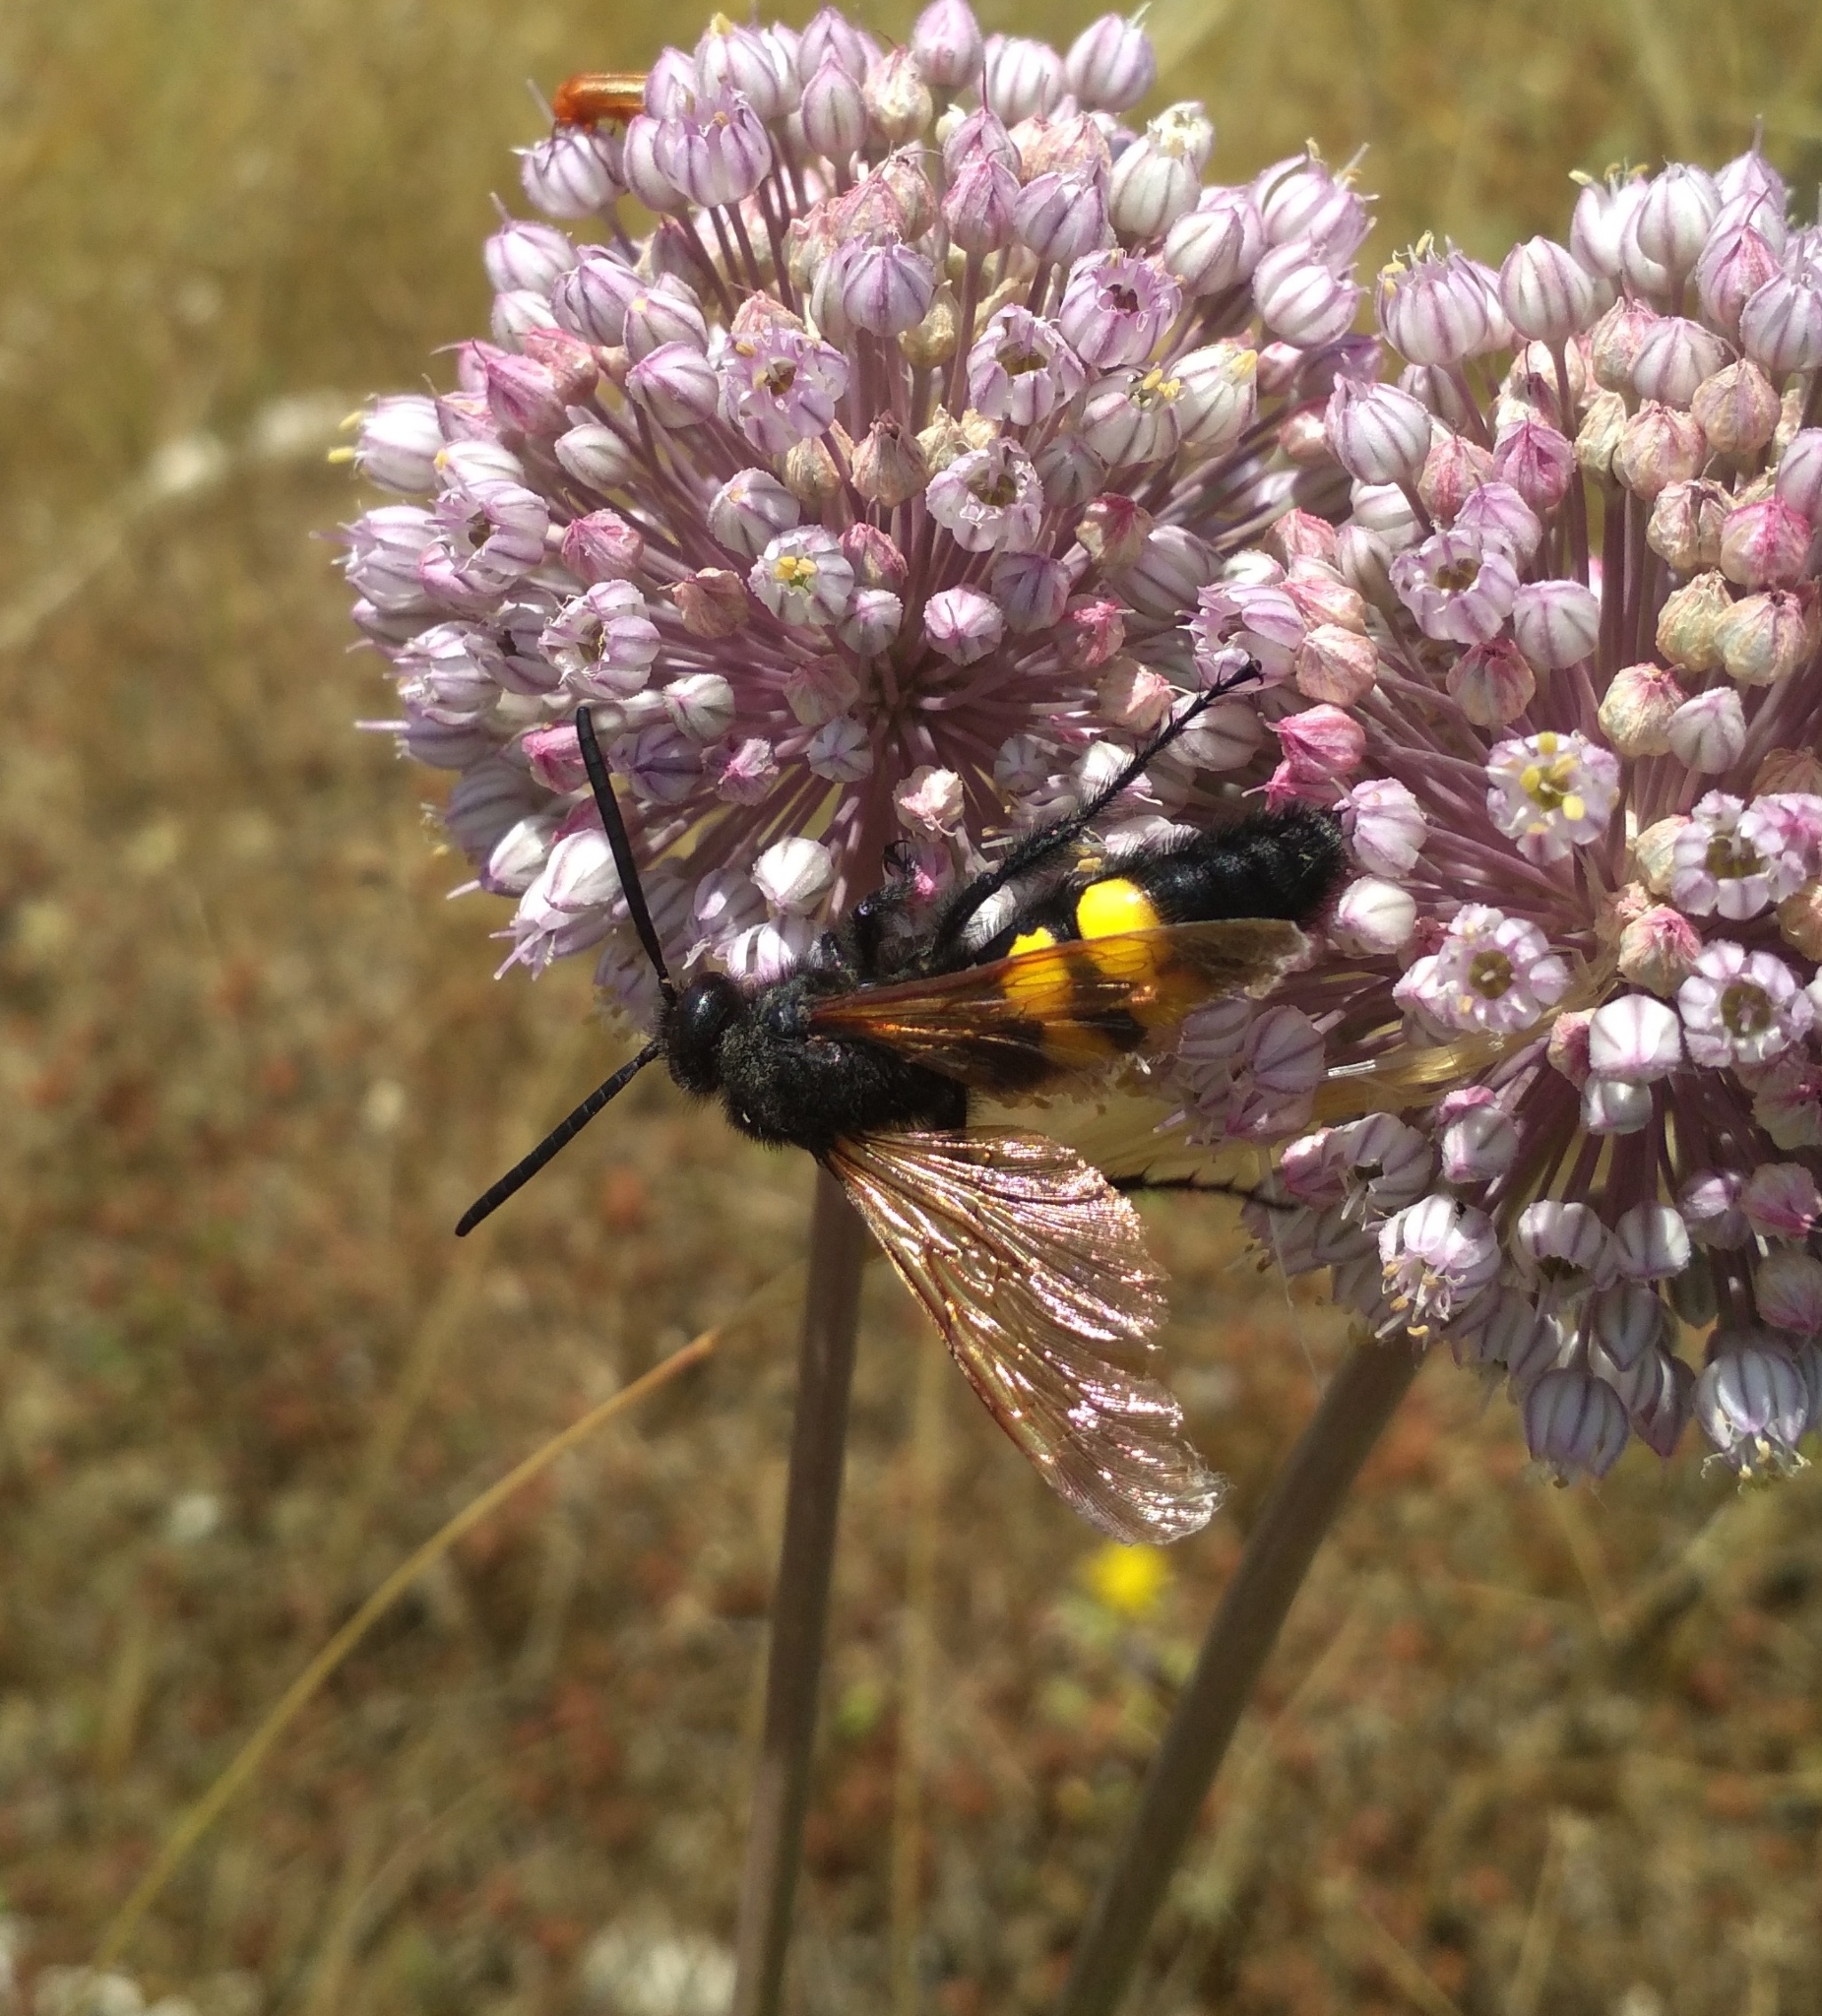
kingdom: Animalia
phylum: Arthropoda
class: Insecta
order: Hymenoptera
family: Scoliidae
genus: Megascolia
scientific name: Megascolia maculata
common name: Mammoth wasp
